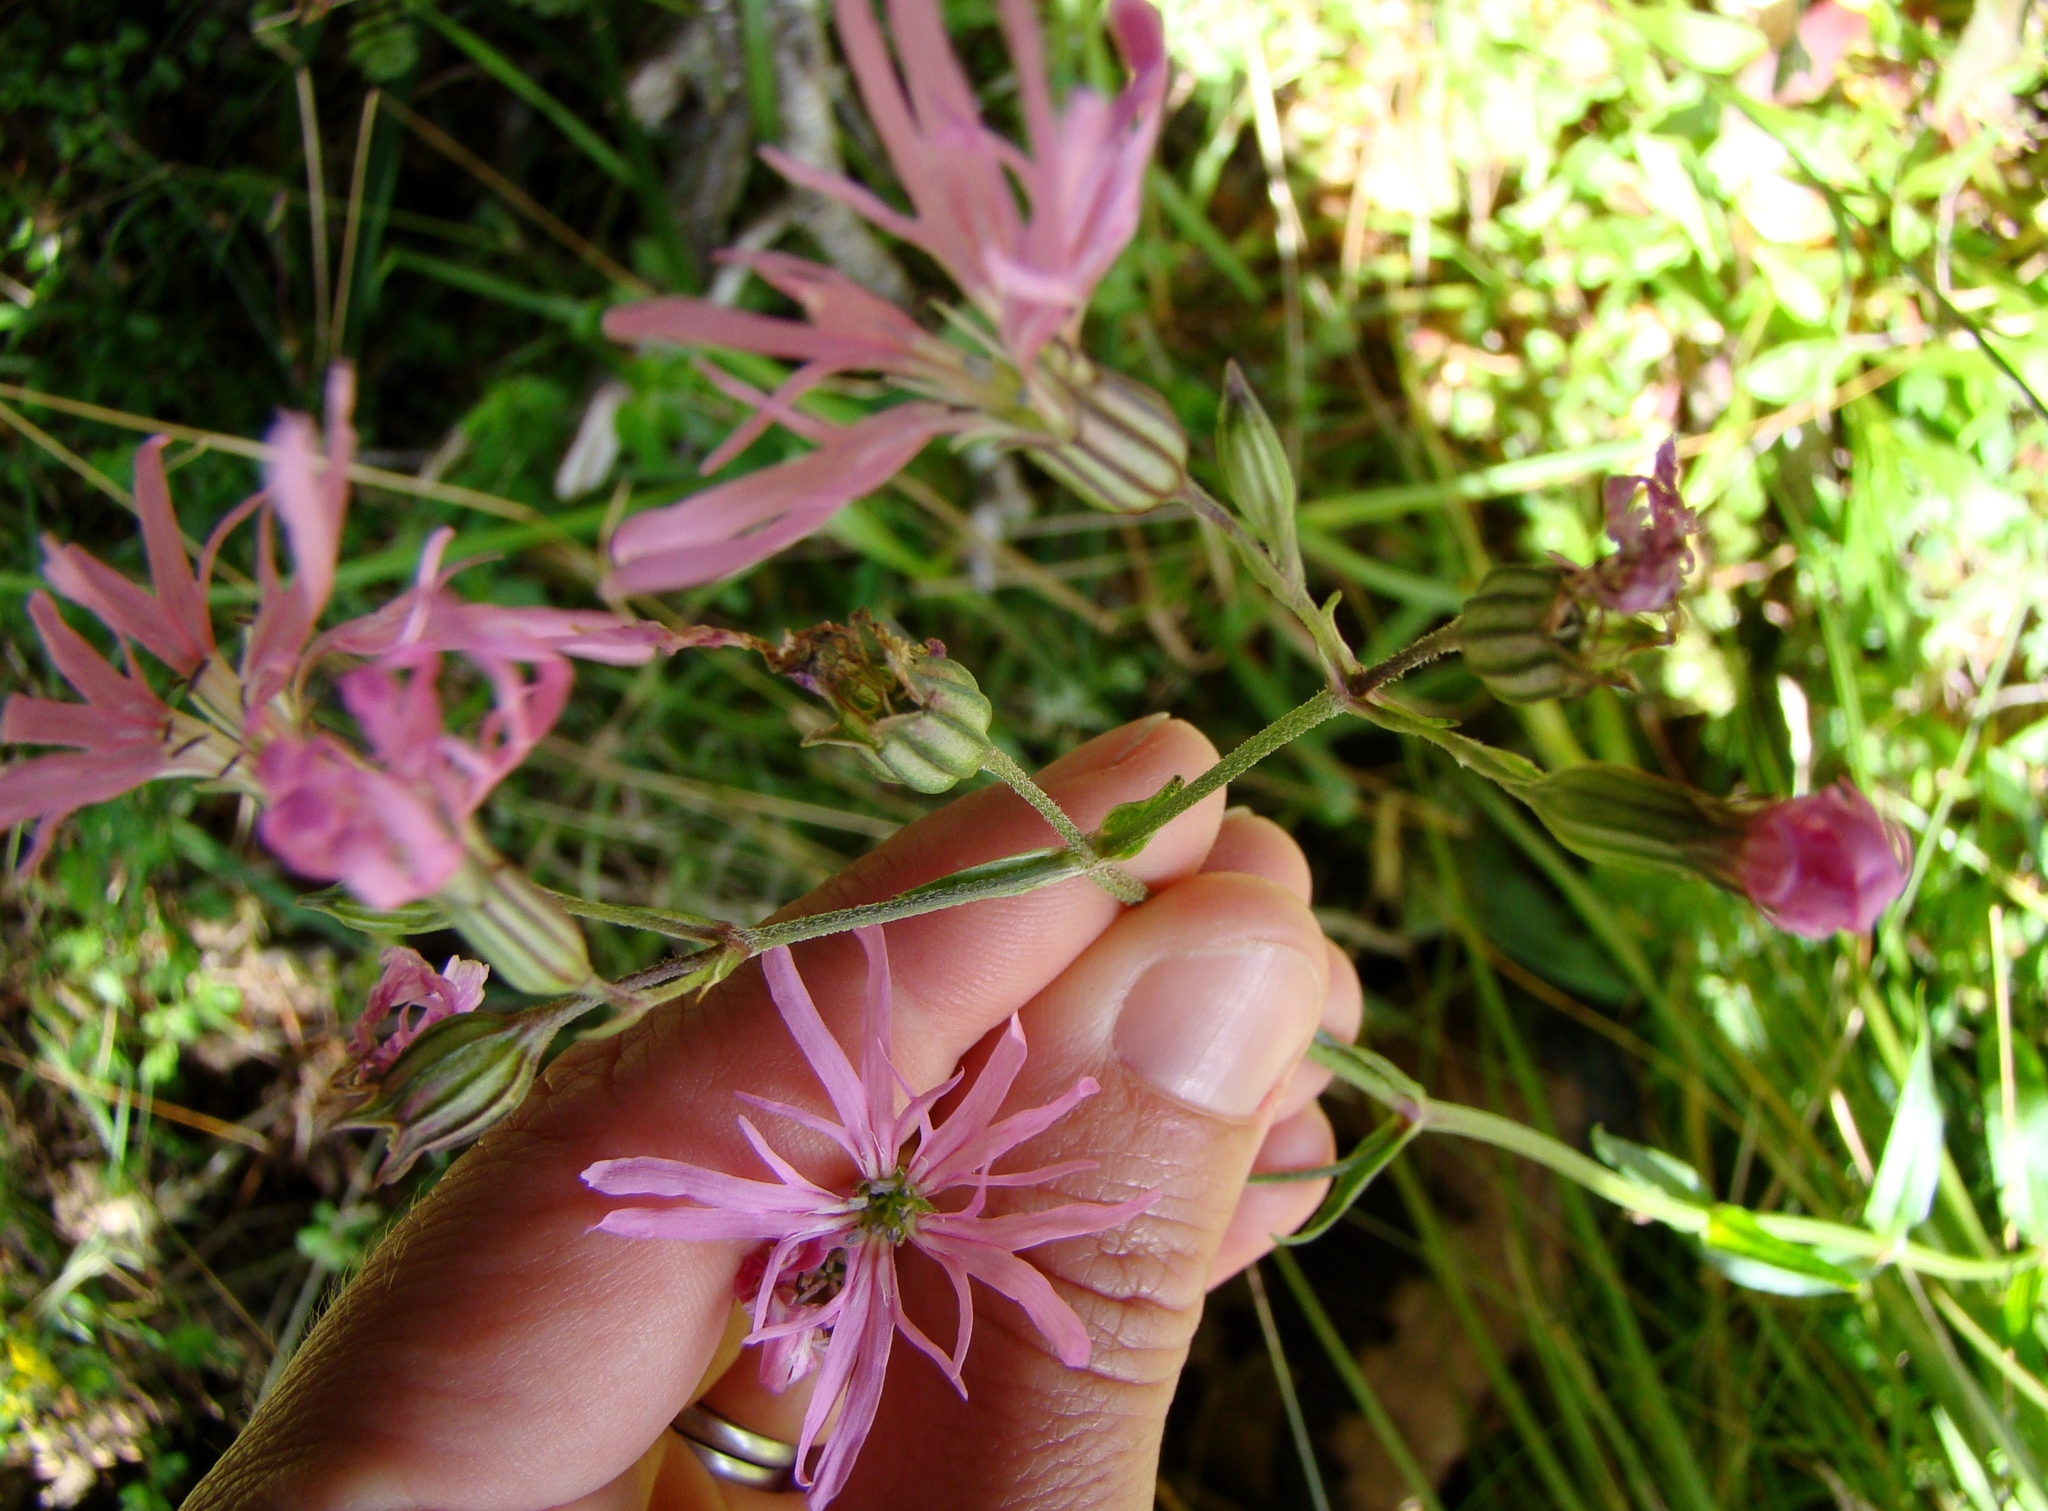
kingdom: Plantae
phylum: Tracheophyta
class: Magnoliopsida
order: Caryophyllales
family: Caryophyllaceae
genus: Silene
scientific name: Silene flos-cuculi
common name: Ragged-robin
